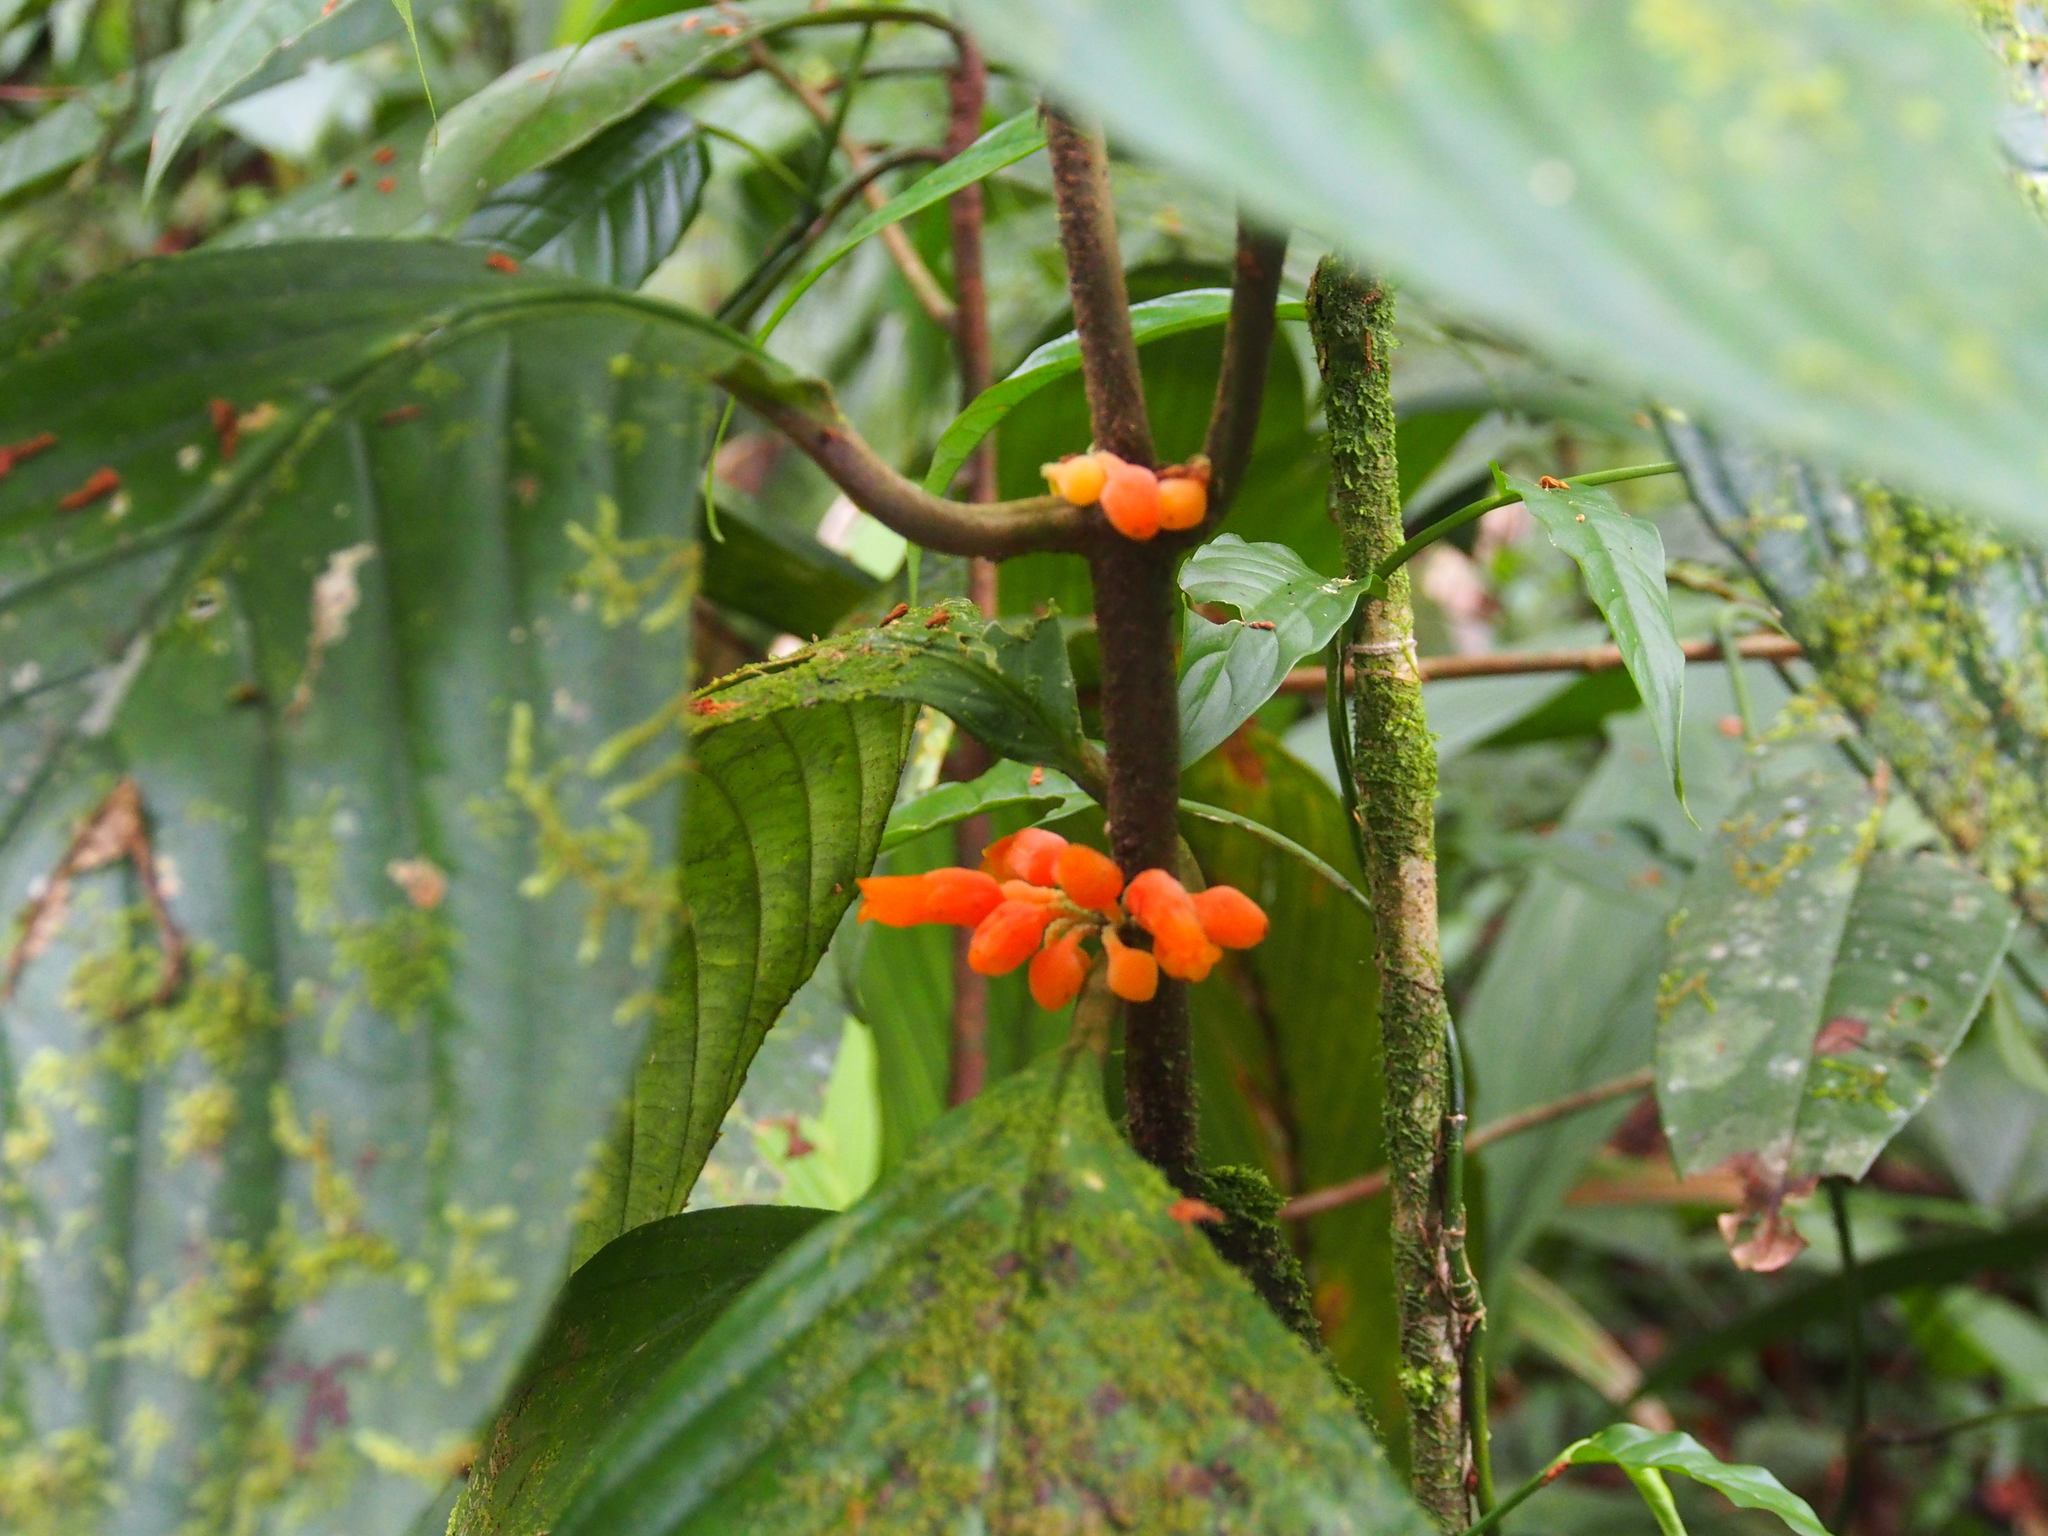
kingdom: Plantae
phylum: Tracheophyta
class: Magnoliopsida
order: Lamiales
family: Gesneriaceae
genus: Besleria
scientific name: Besleria robusta
